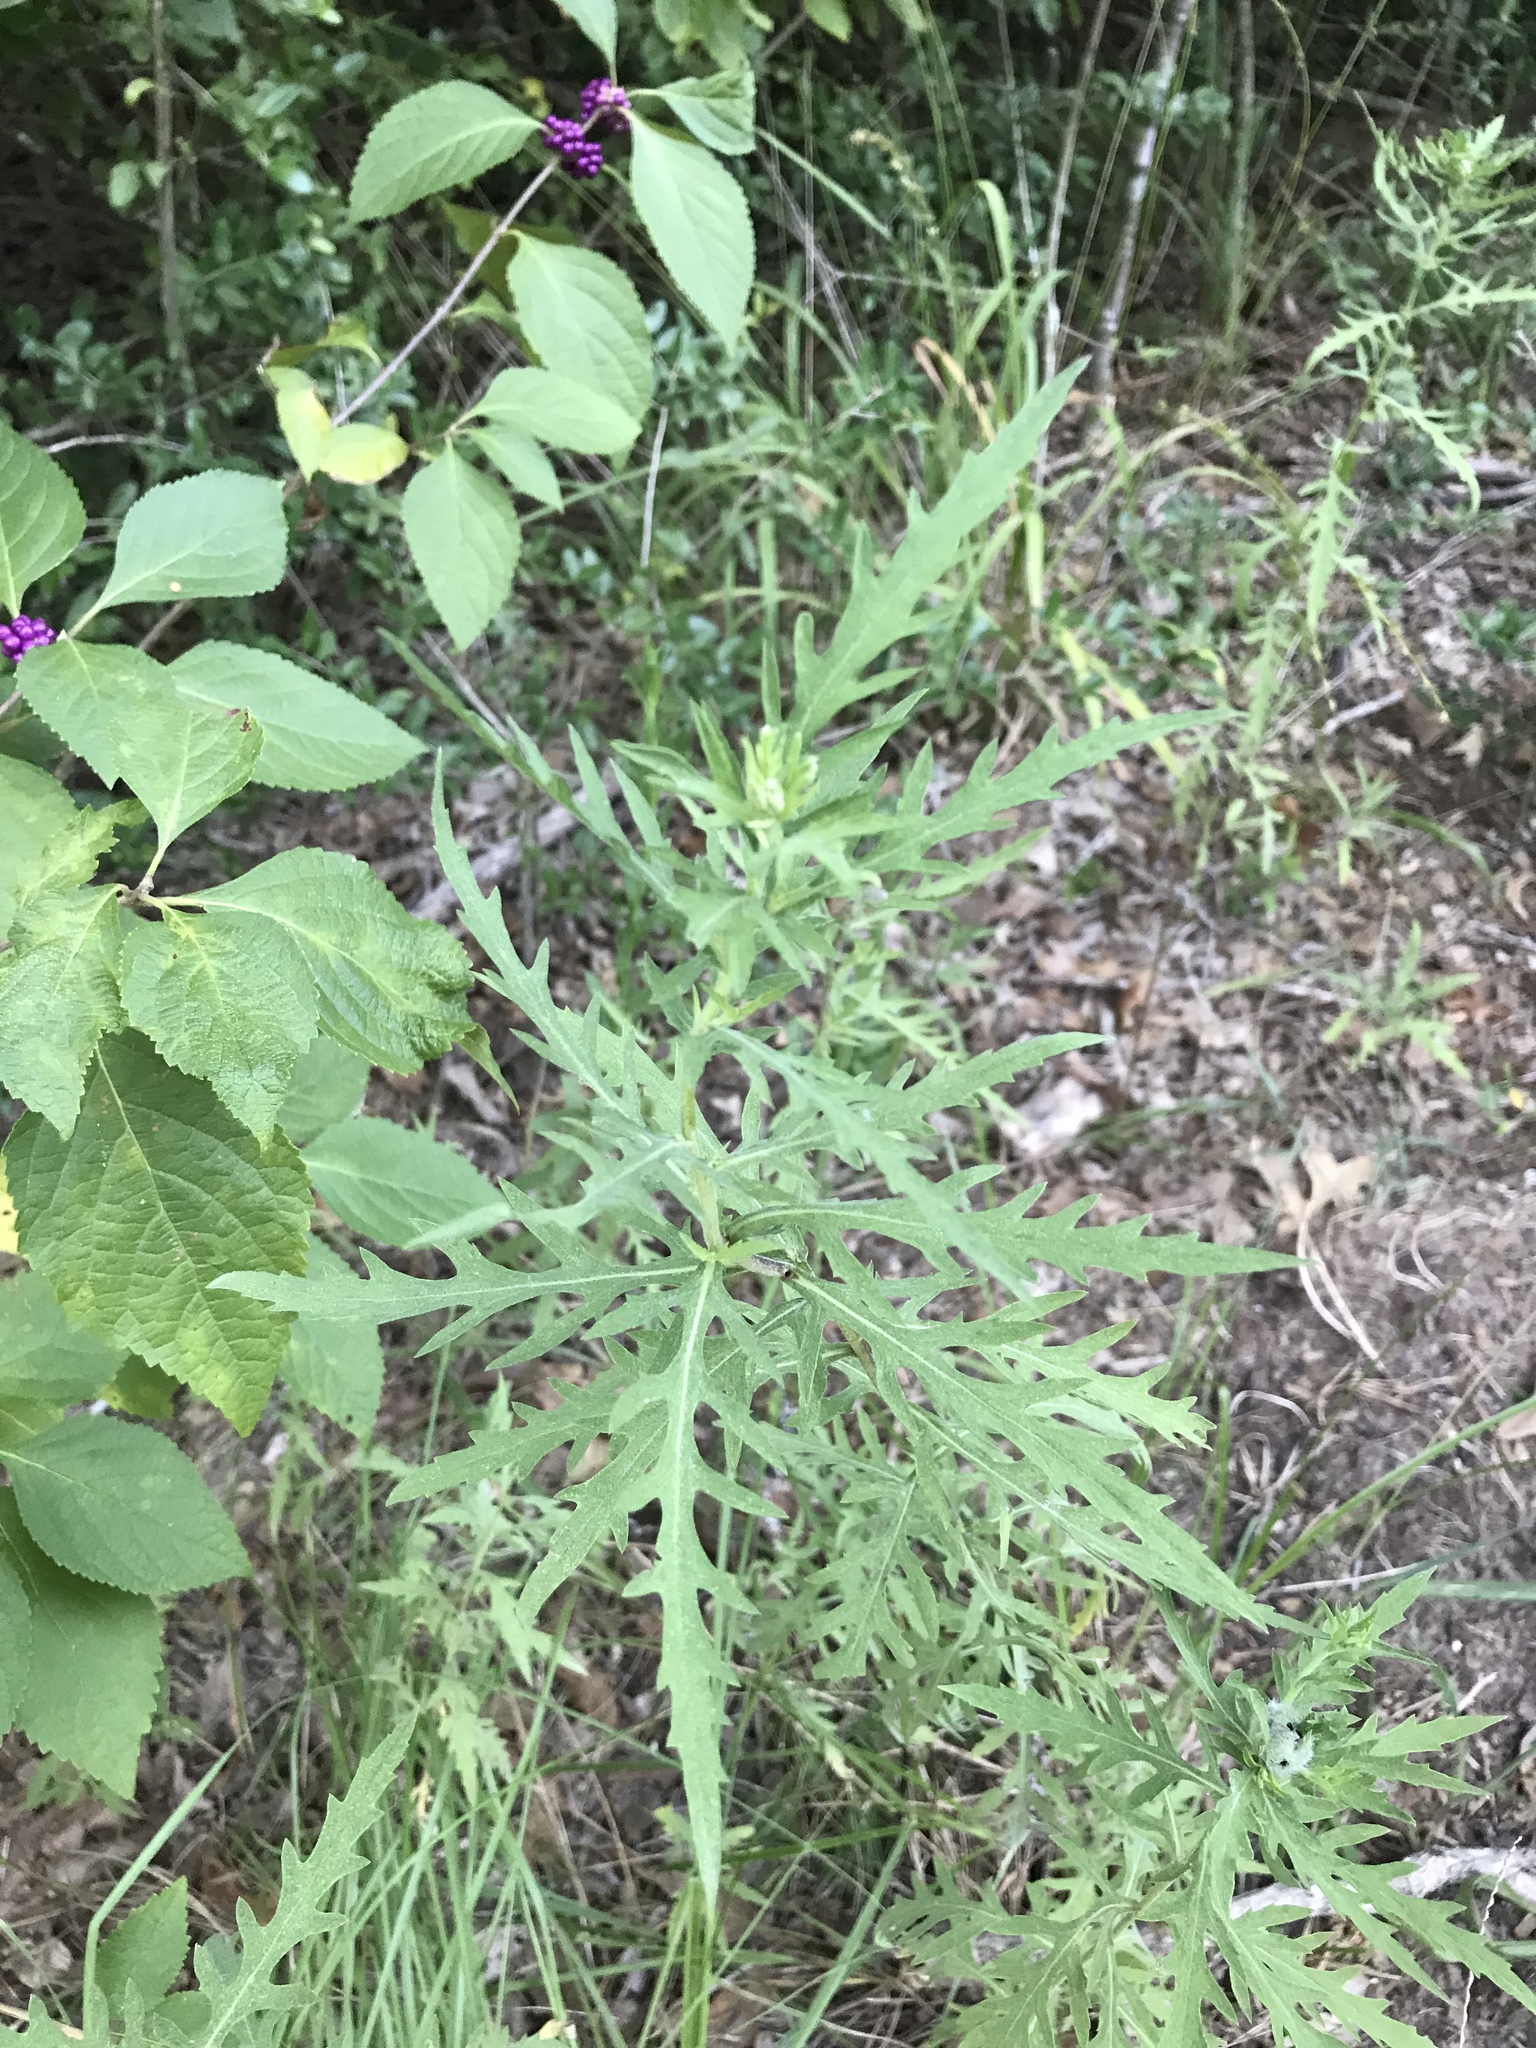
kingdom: Plantae
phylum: Tracheophyta
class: Magnoliopsida
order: Asterales
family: Asteraceae
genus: Ambrosia
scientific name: Ambrosia psilostachya
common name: Perennial ragweed
